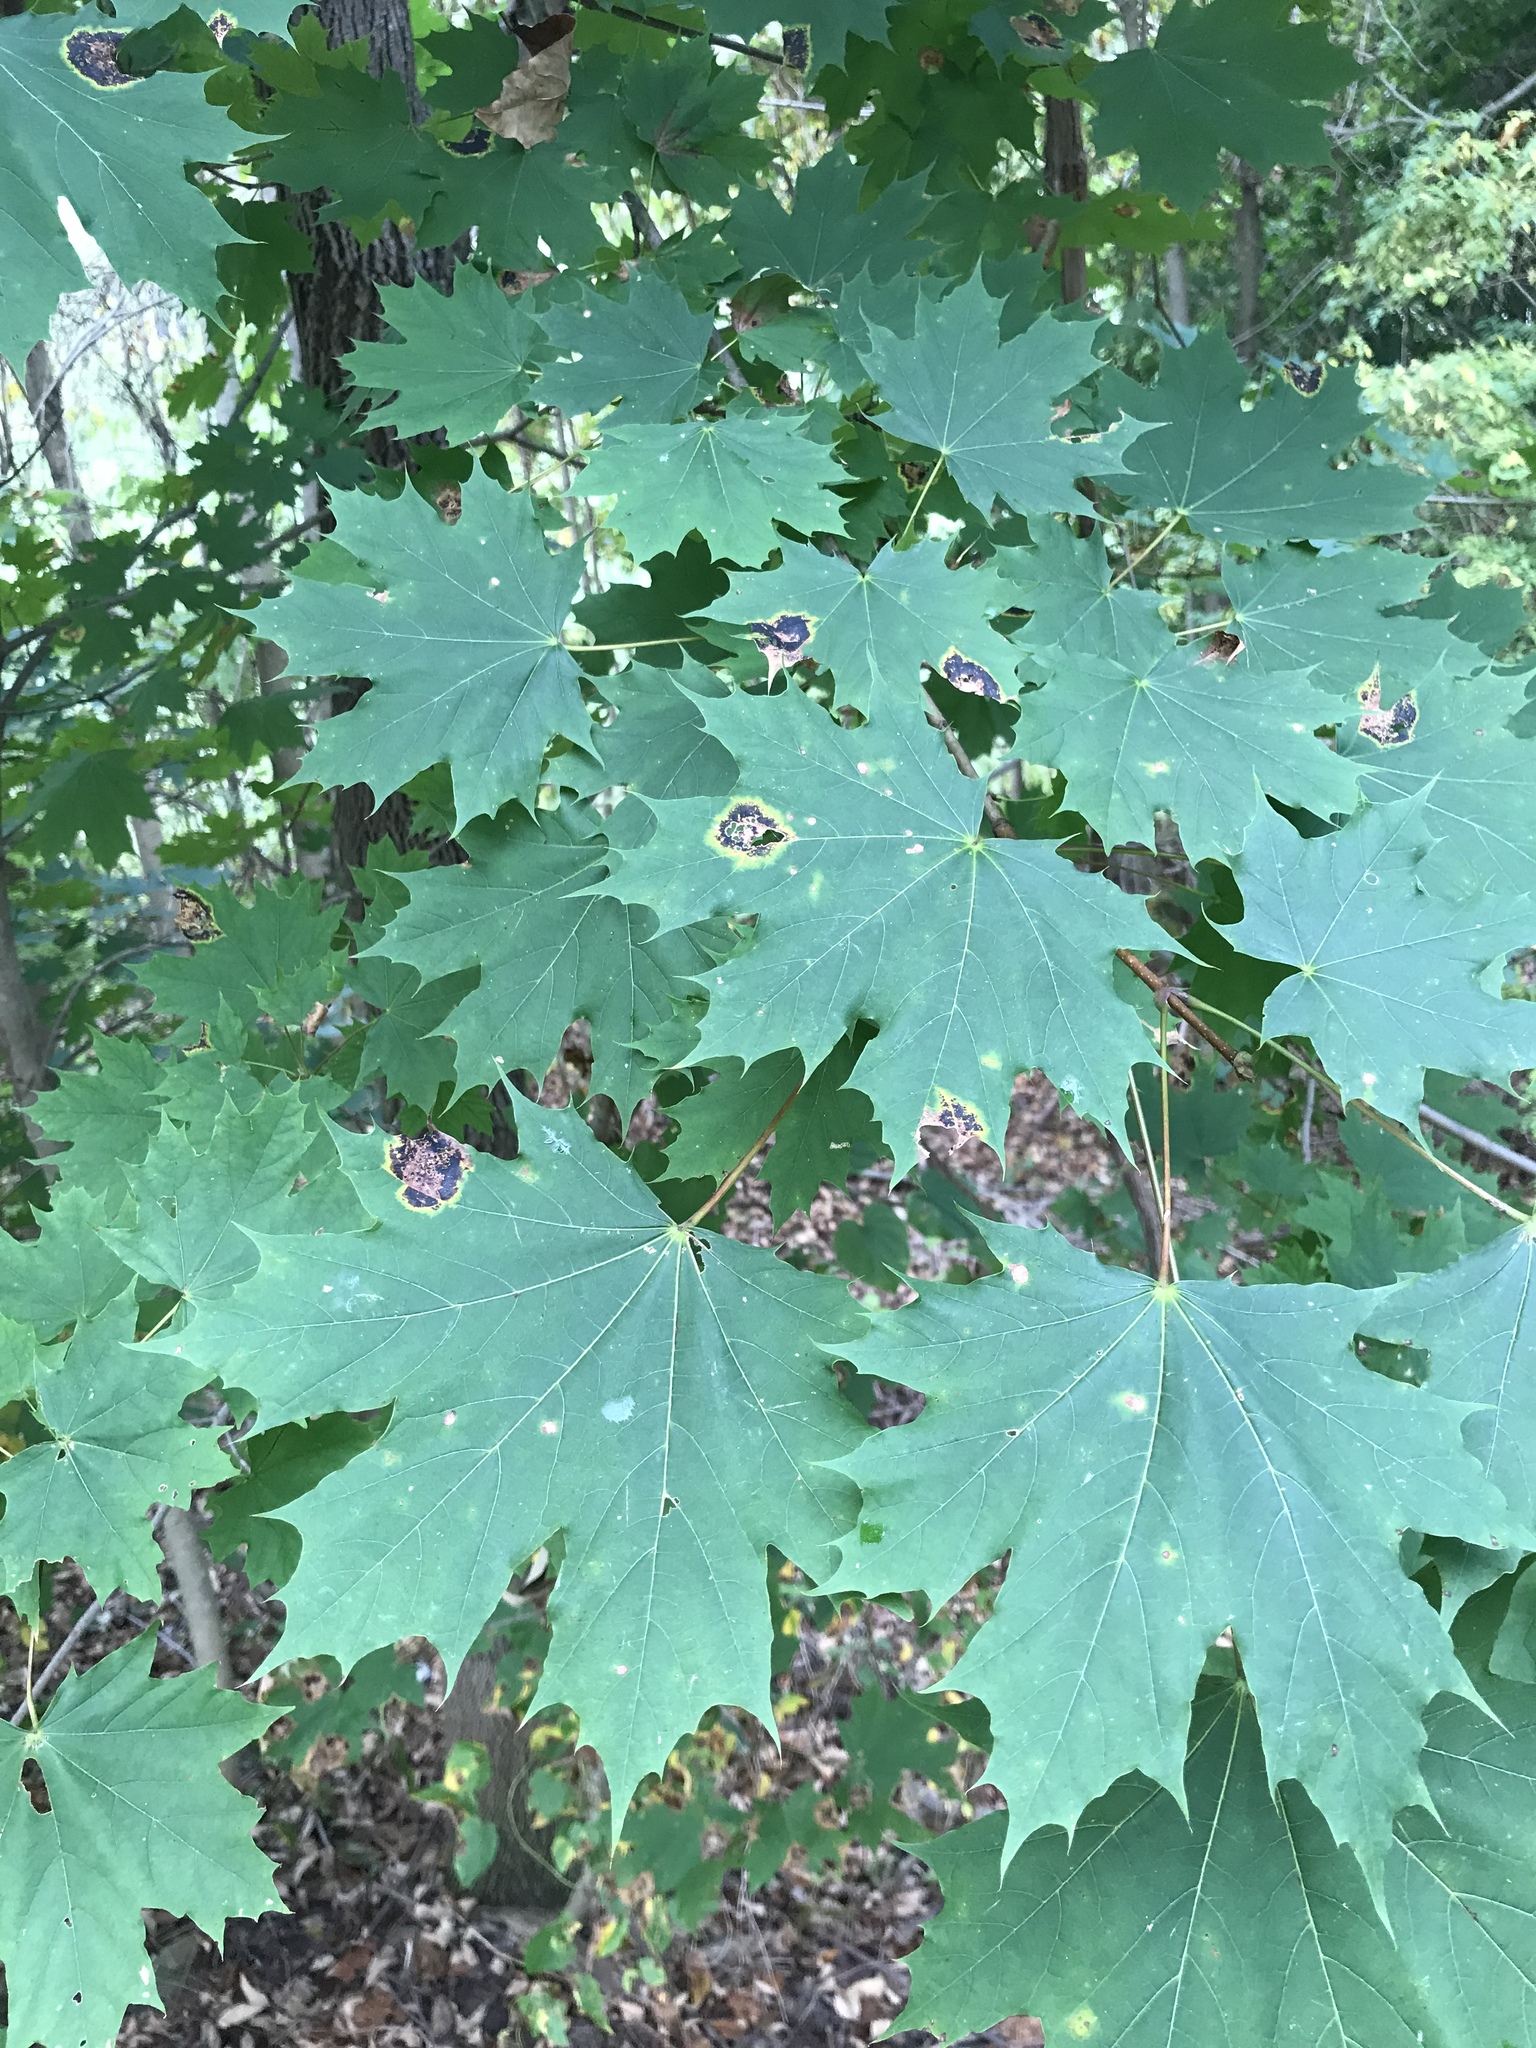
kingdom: Plantae
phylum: Tracheophyta
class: Magnoliopsida
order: Sapindales
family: Sapindaceae
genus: Acer
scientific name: Acer platanoides
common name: Norway maple
